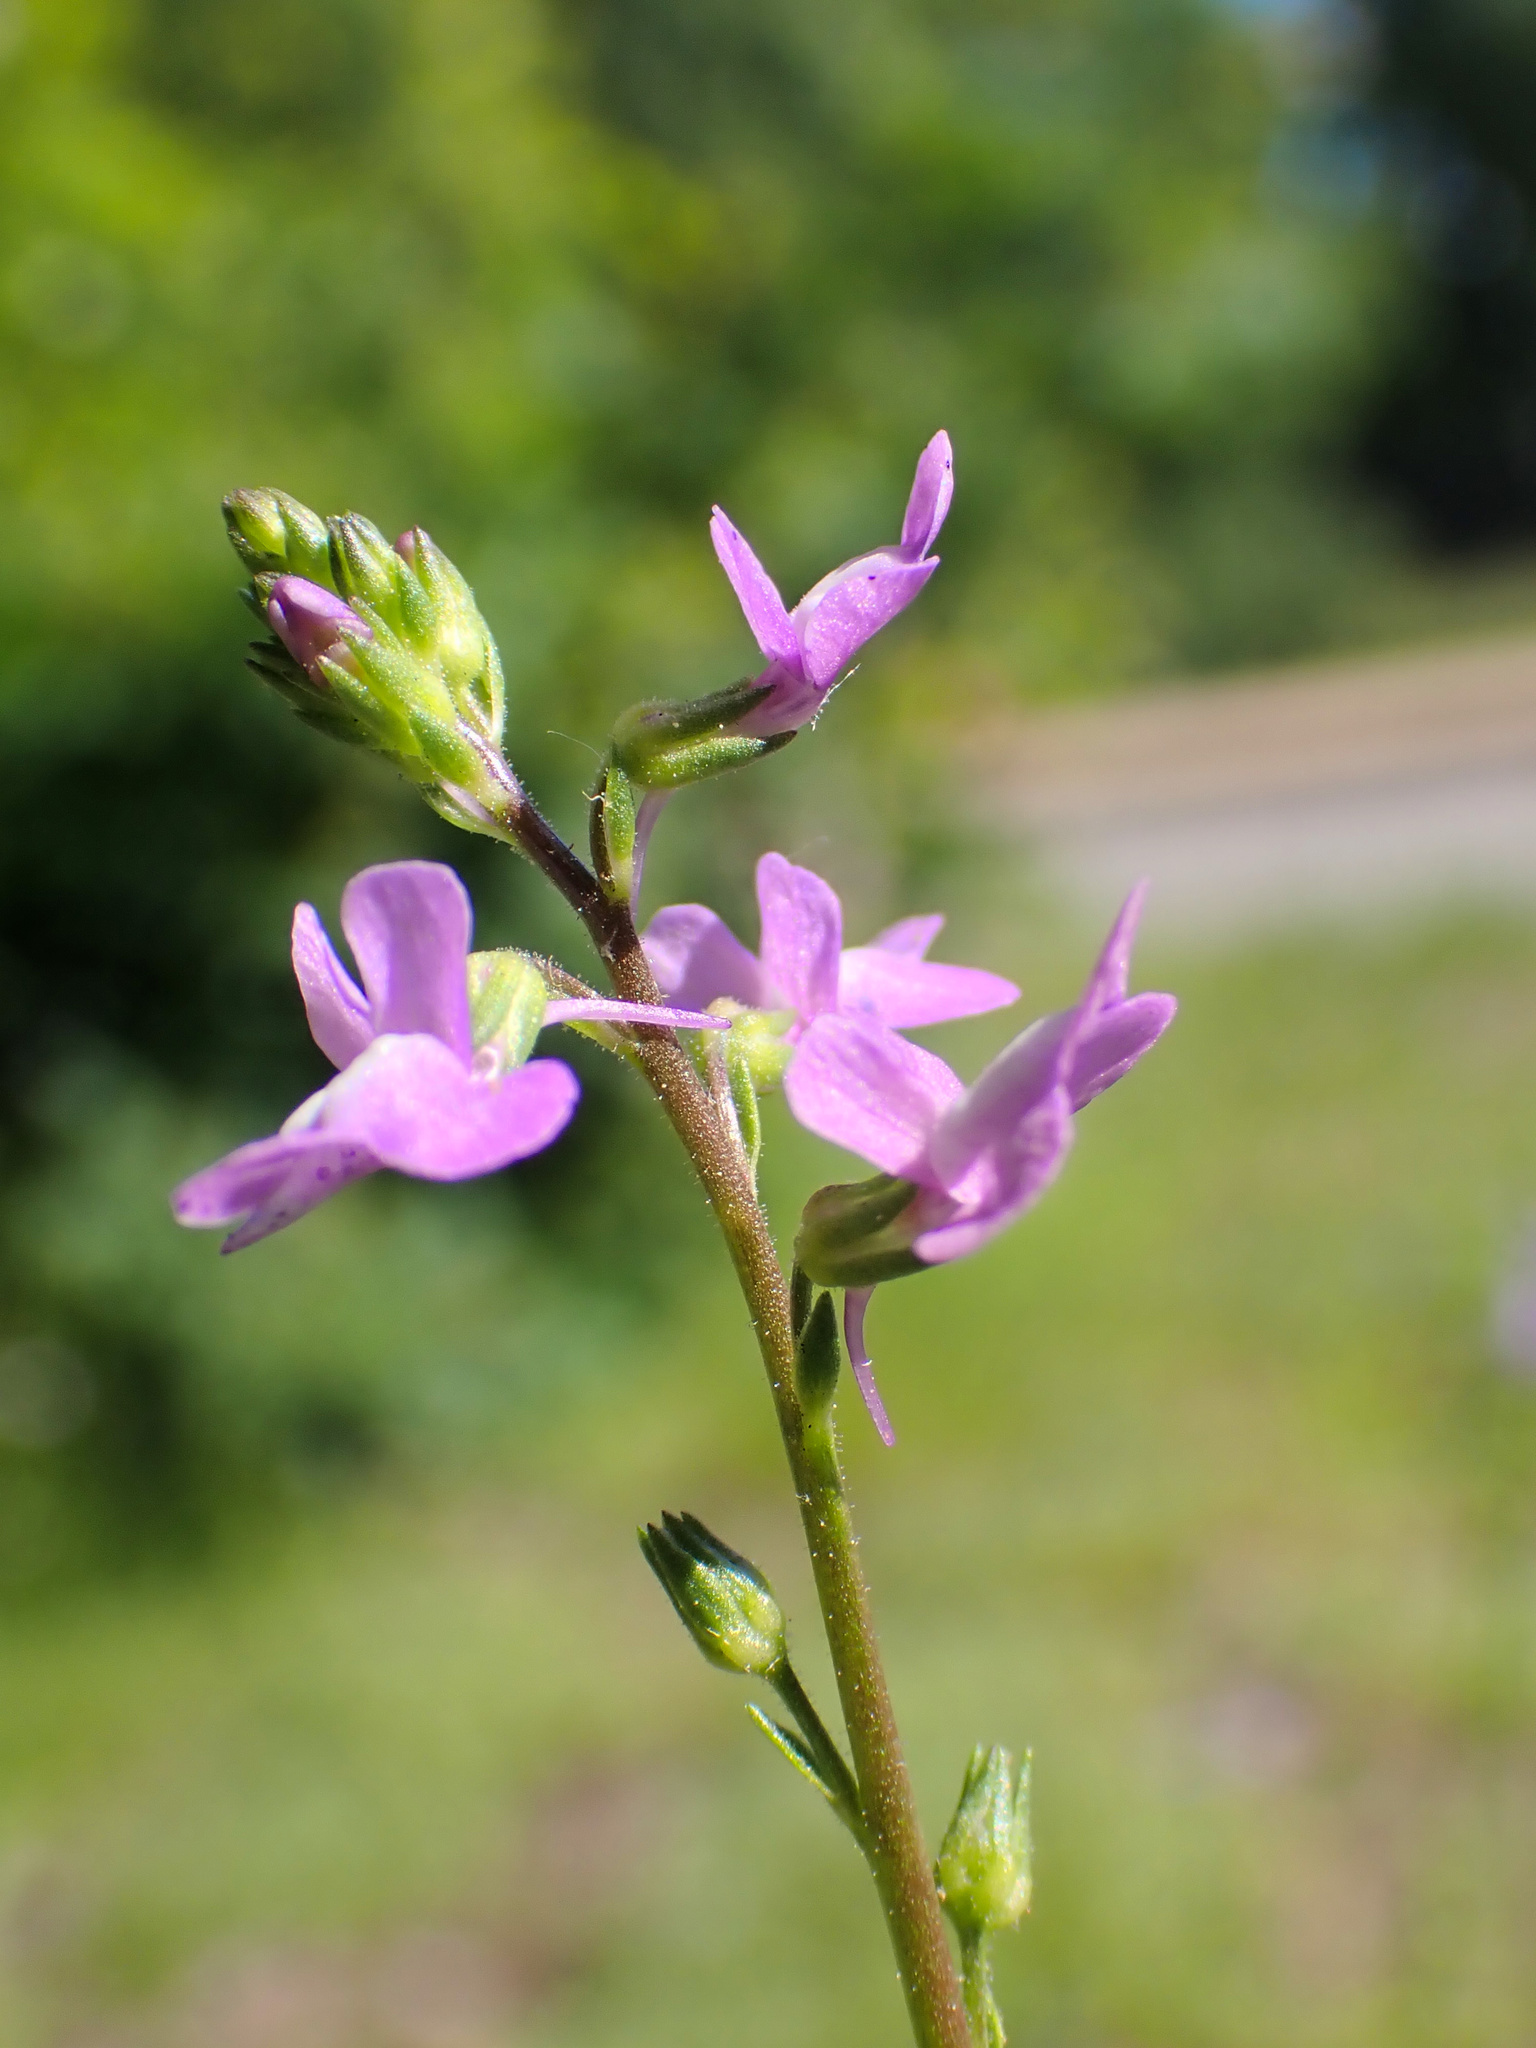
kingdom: Plantae
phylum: Tracheophyta
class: Magnoliopsida
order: Lamiales
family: Plantaginaceae
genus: Nuttallanthus
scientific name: Nuttallanthus canadensis
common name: Blue toadflax
